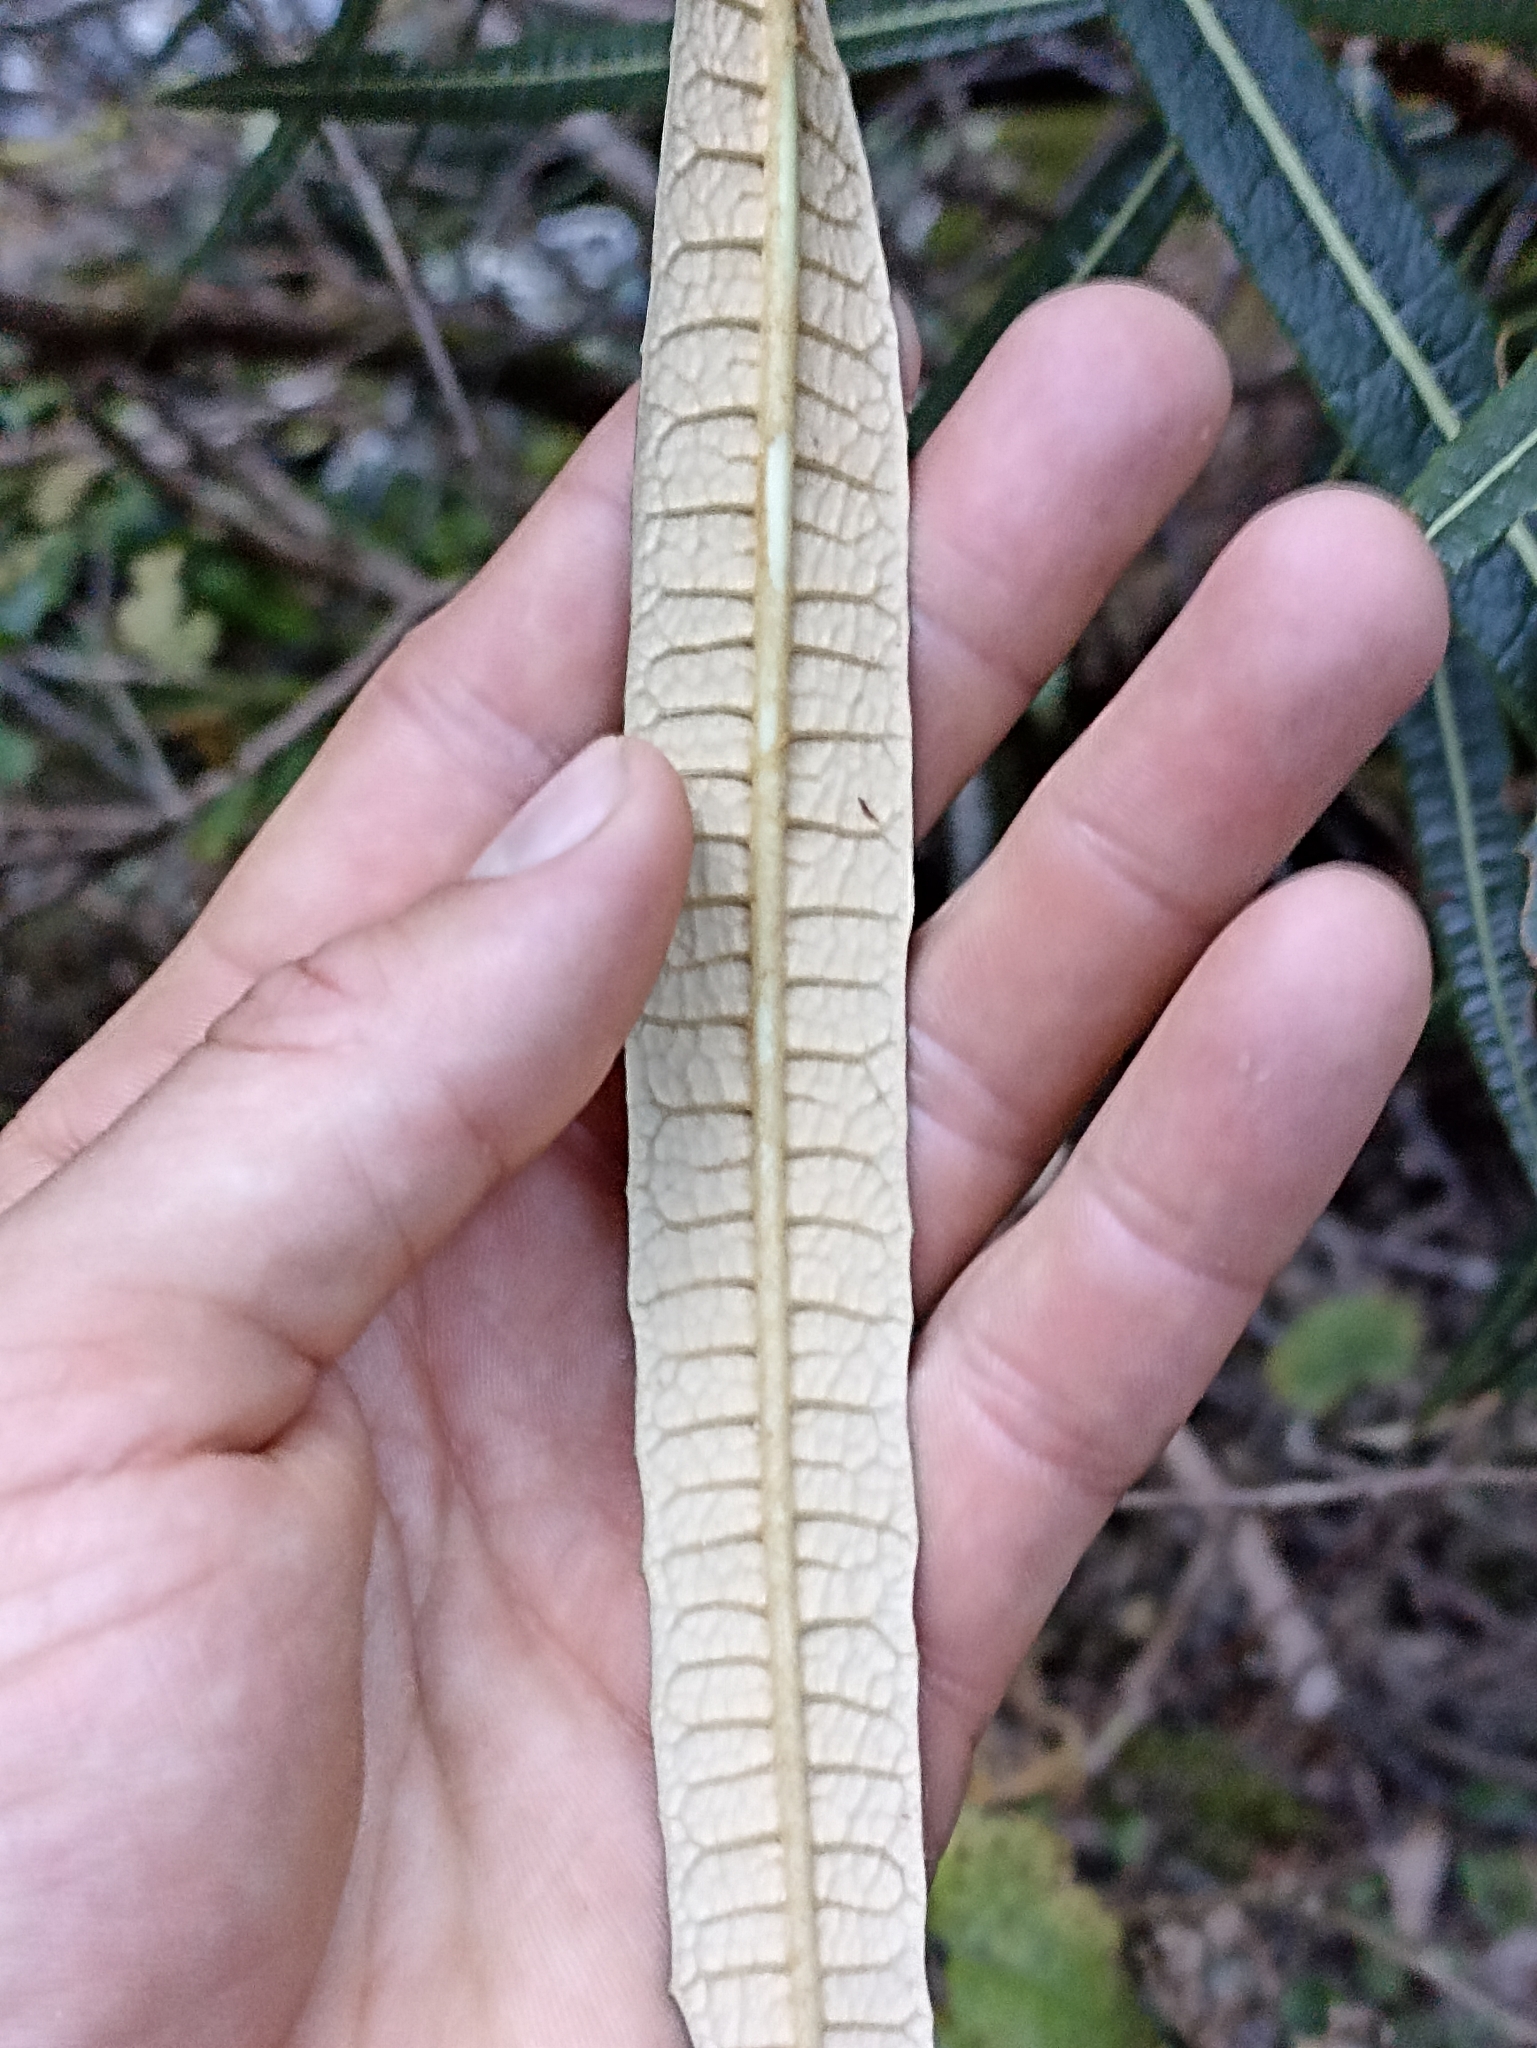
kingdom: Plantae
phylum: Tracheophyta
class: Magnoliopsida
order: Asterales
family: Asteraceae
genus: Olearia
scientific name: Olearia lacunosa
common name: Lancewood tree daisy
